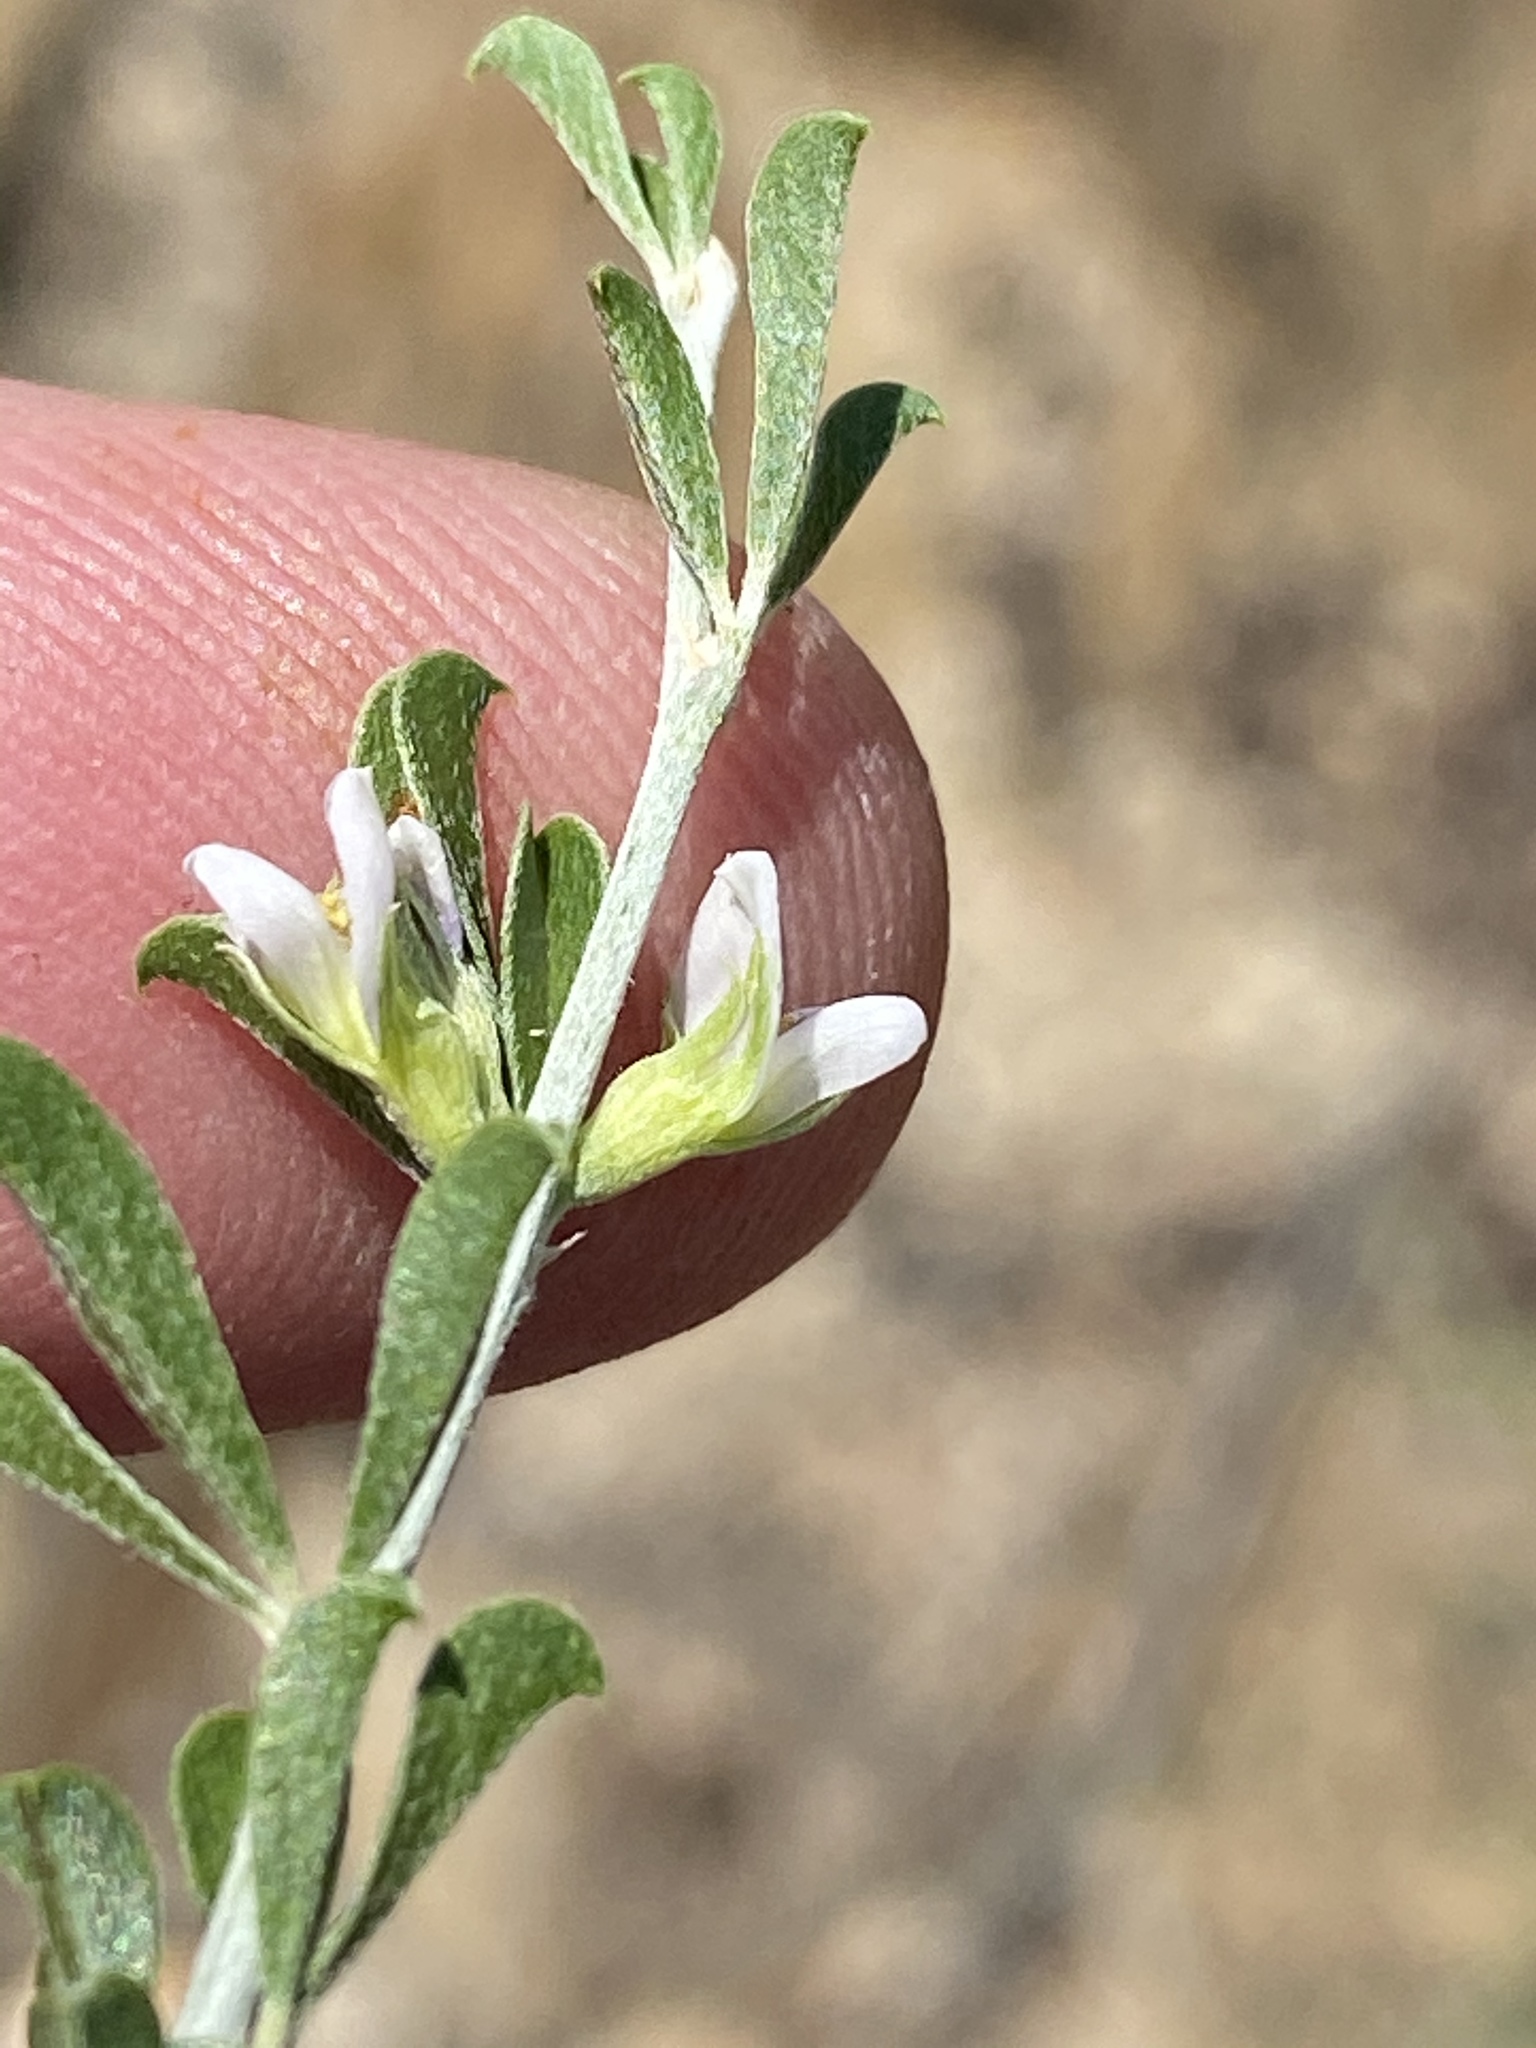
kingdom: Plantae
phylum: Tracheophyta
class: Magnoliopsida
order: Fabales
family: Fabaceae
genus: Psoralea
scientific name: Psoralea candicans
